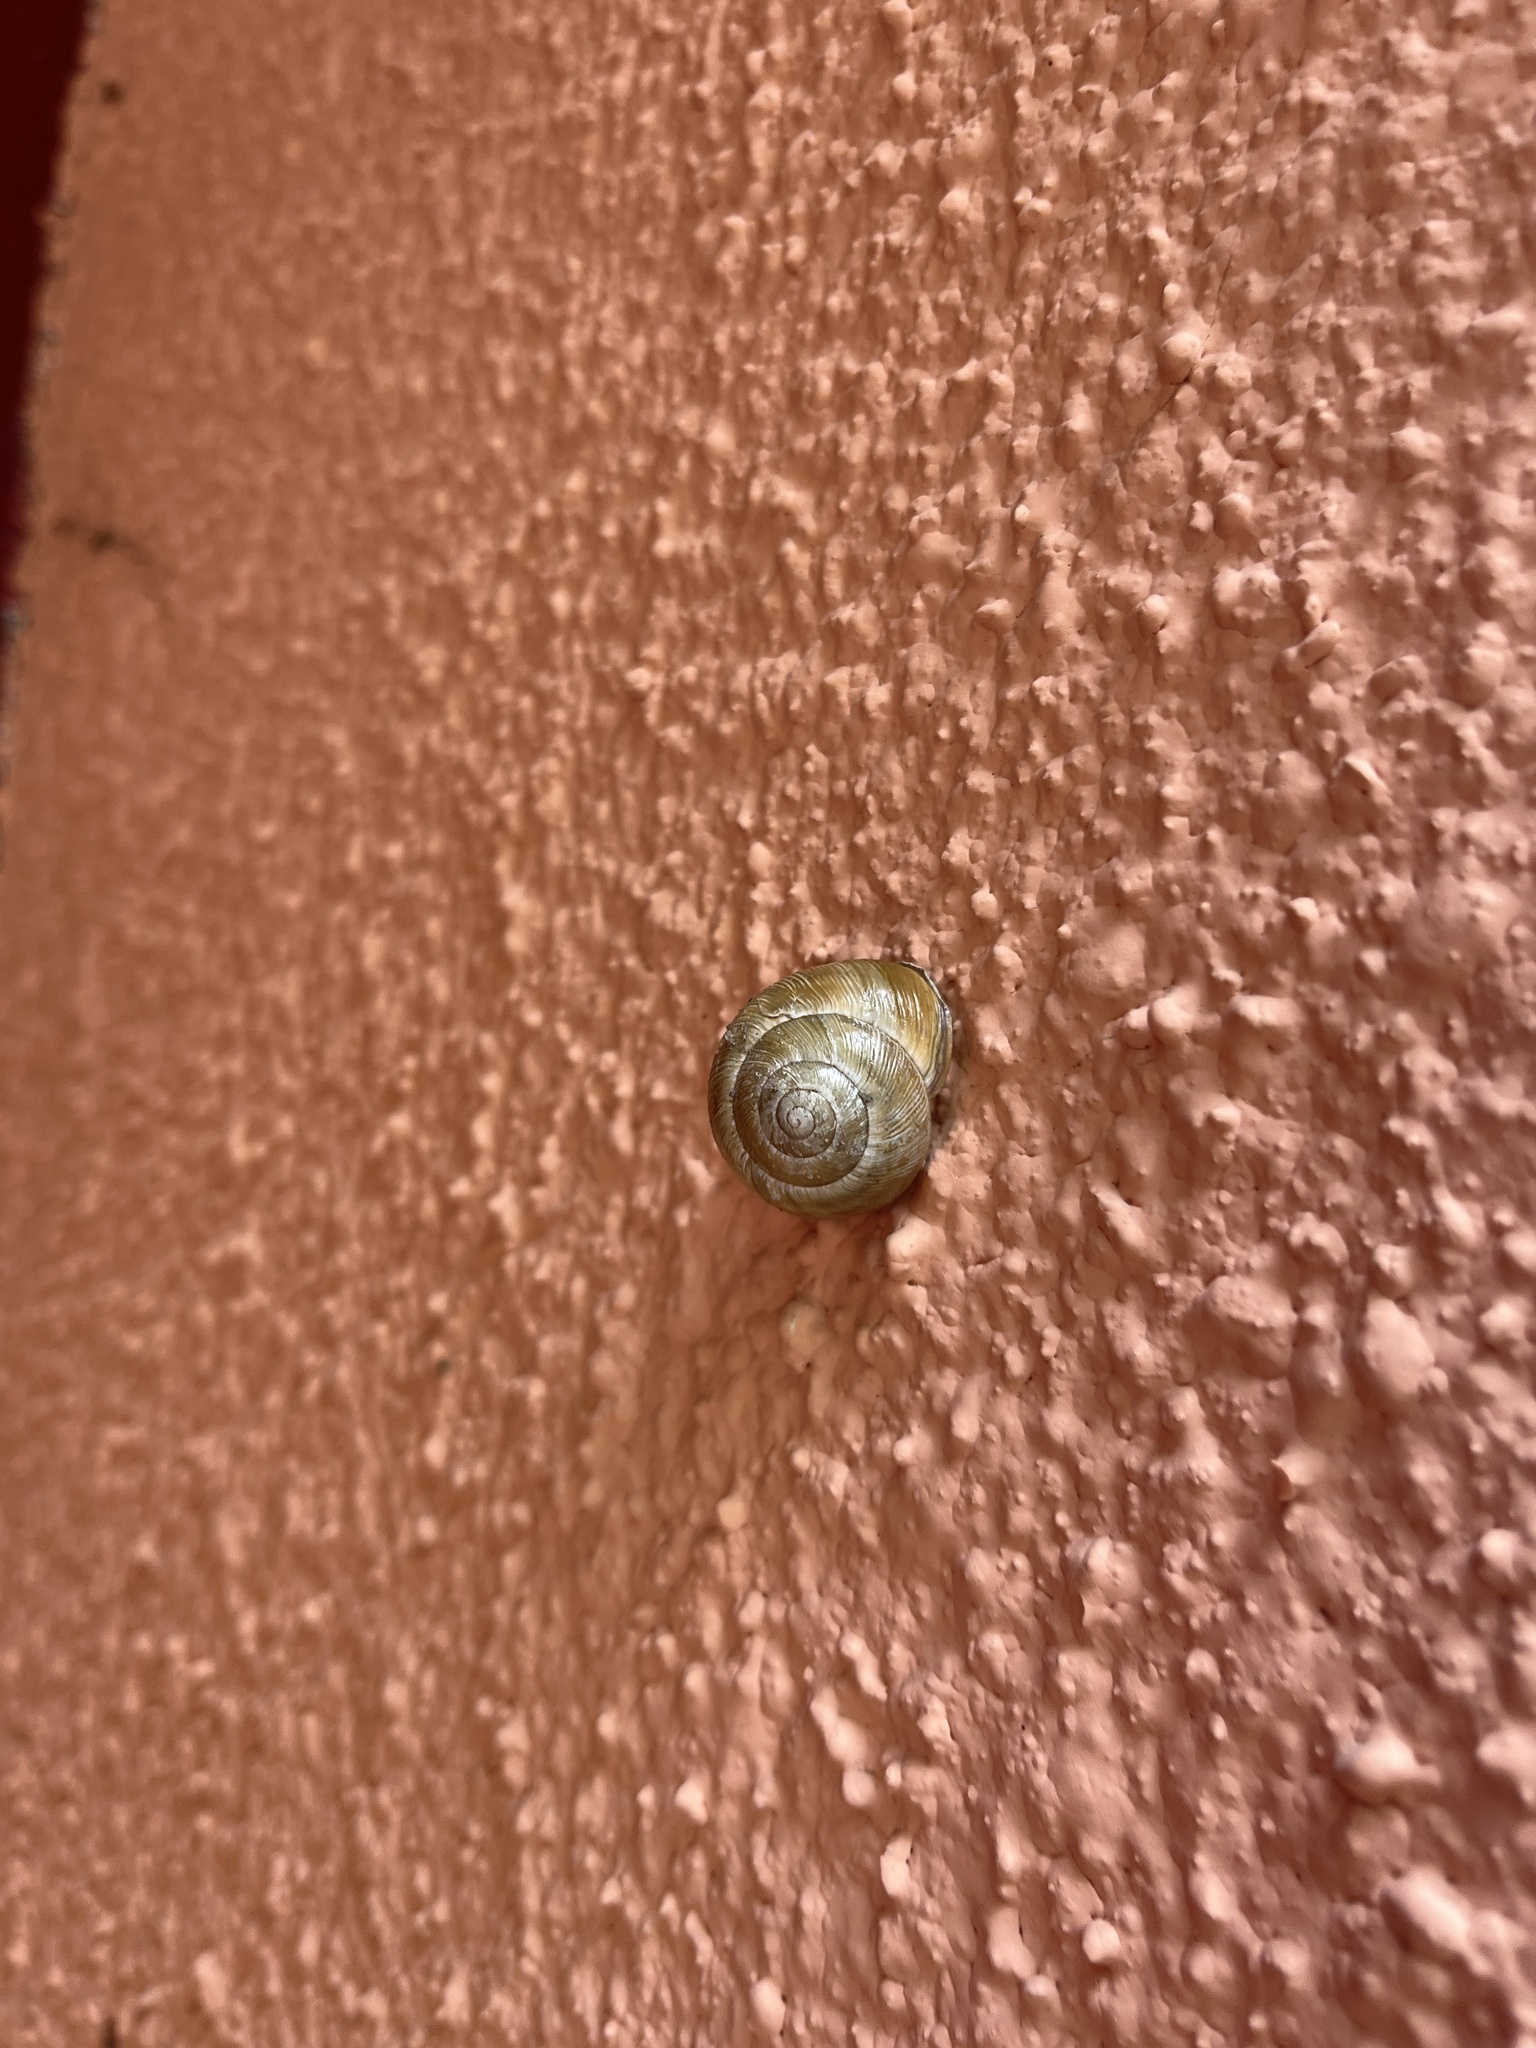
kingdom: Animalia
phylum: Mollusca
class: Gastropoda
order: Stylommatophora
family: Helicidae
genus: Cepaea
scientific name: Cepaea nemoralis
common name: Grovesnail
